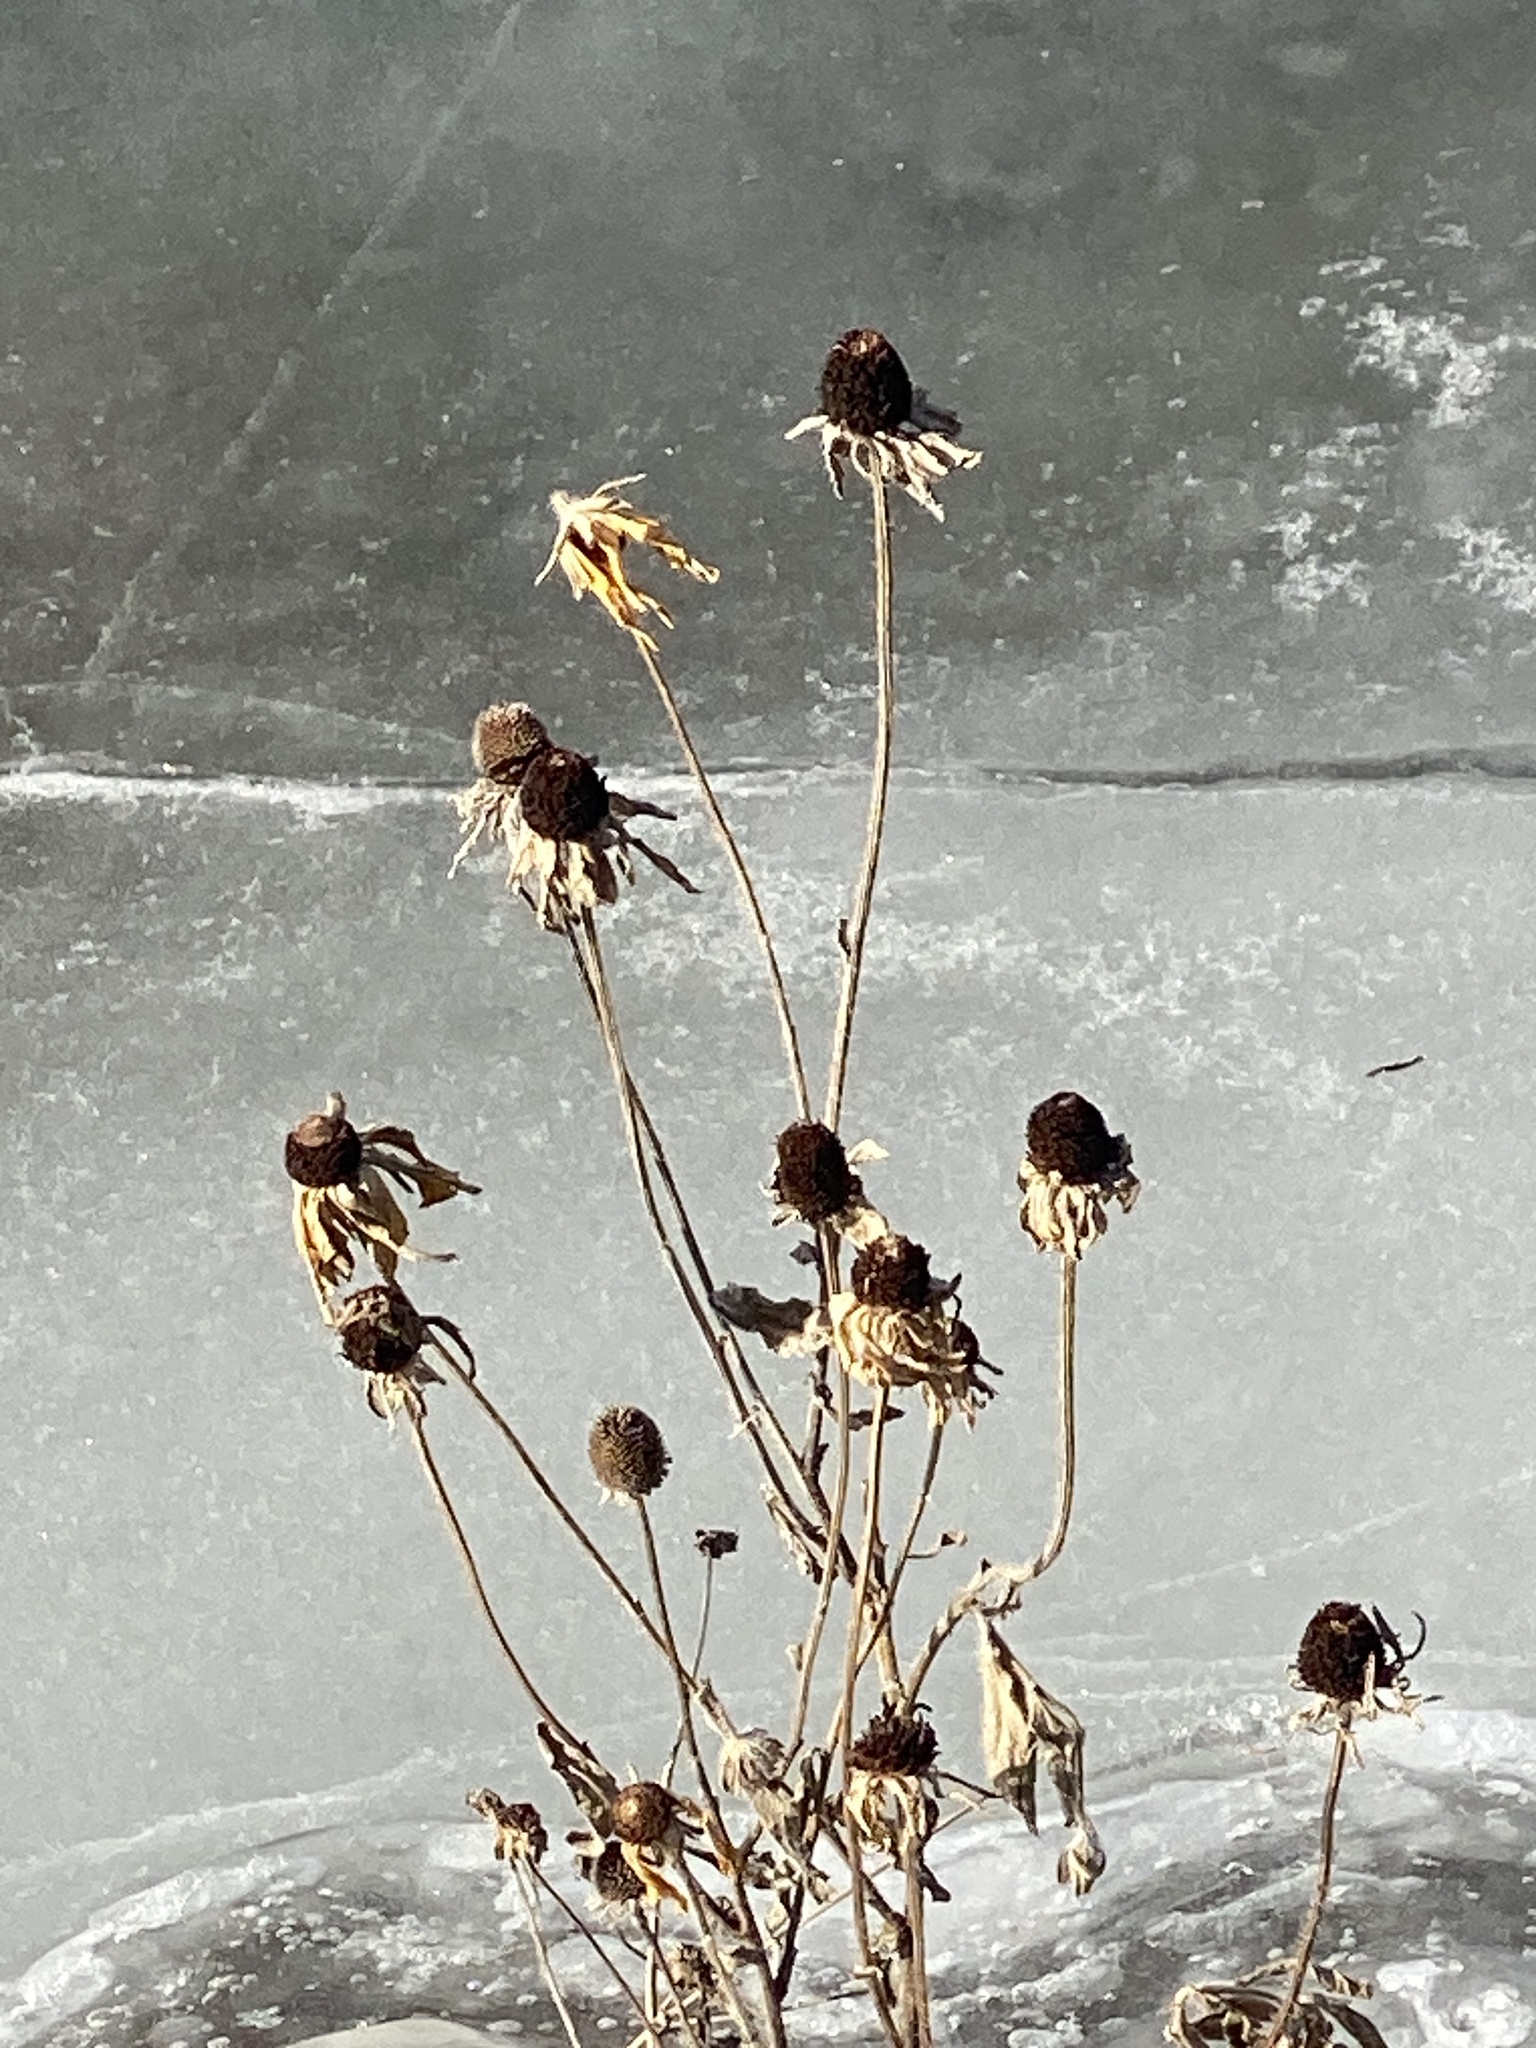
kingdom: Plantae
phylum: Tracheophyta
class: Magnoliopsida
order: Asterales
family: Asteraceae
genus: Rudbeckia
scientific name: Rudbeckia hirta
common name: Black-eyed-susan
